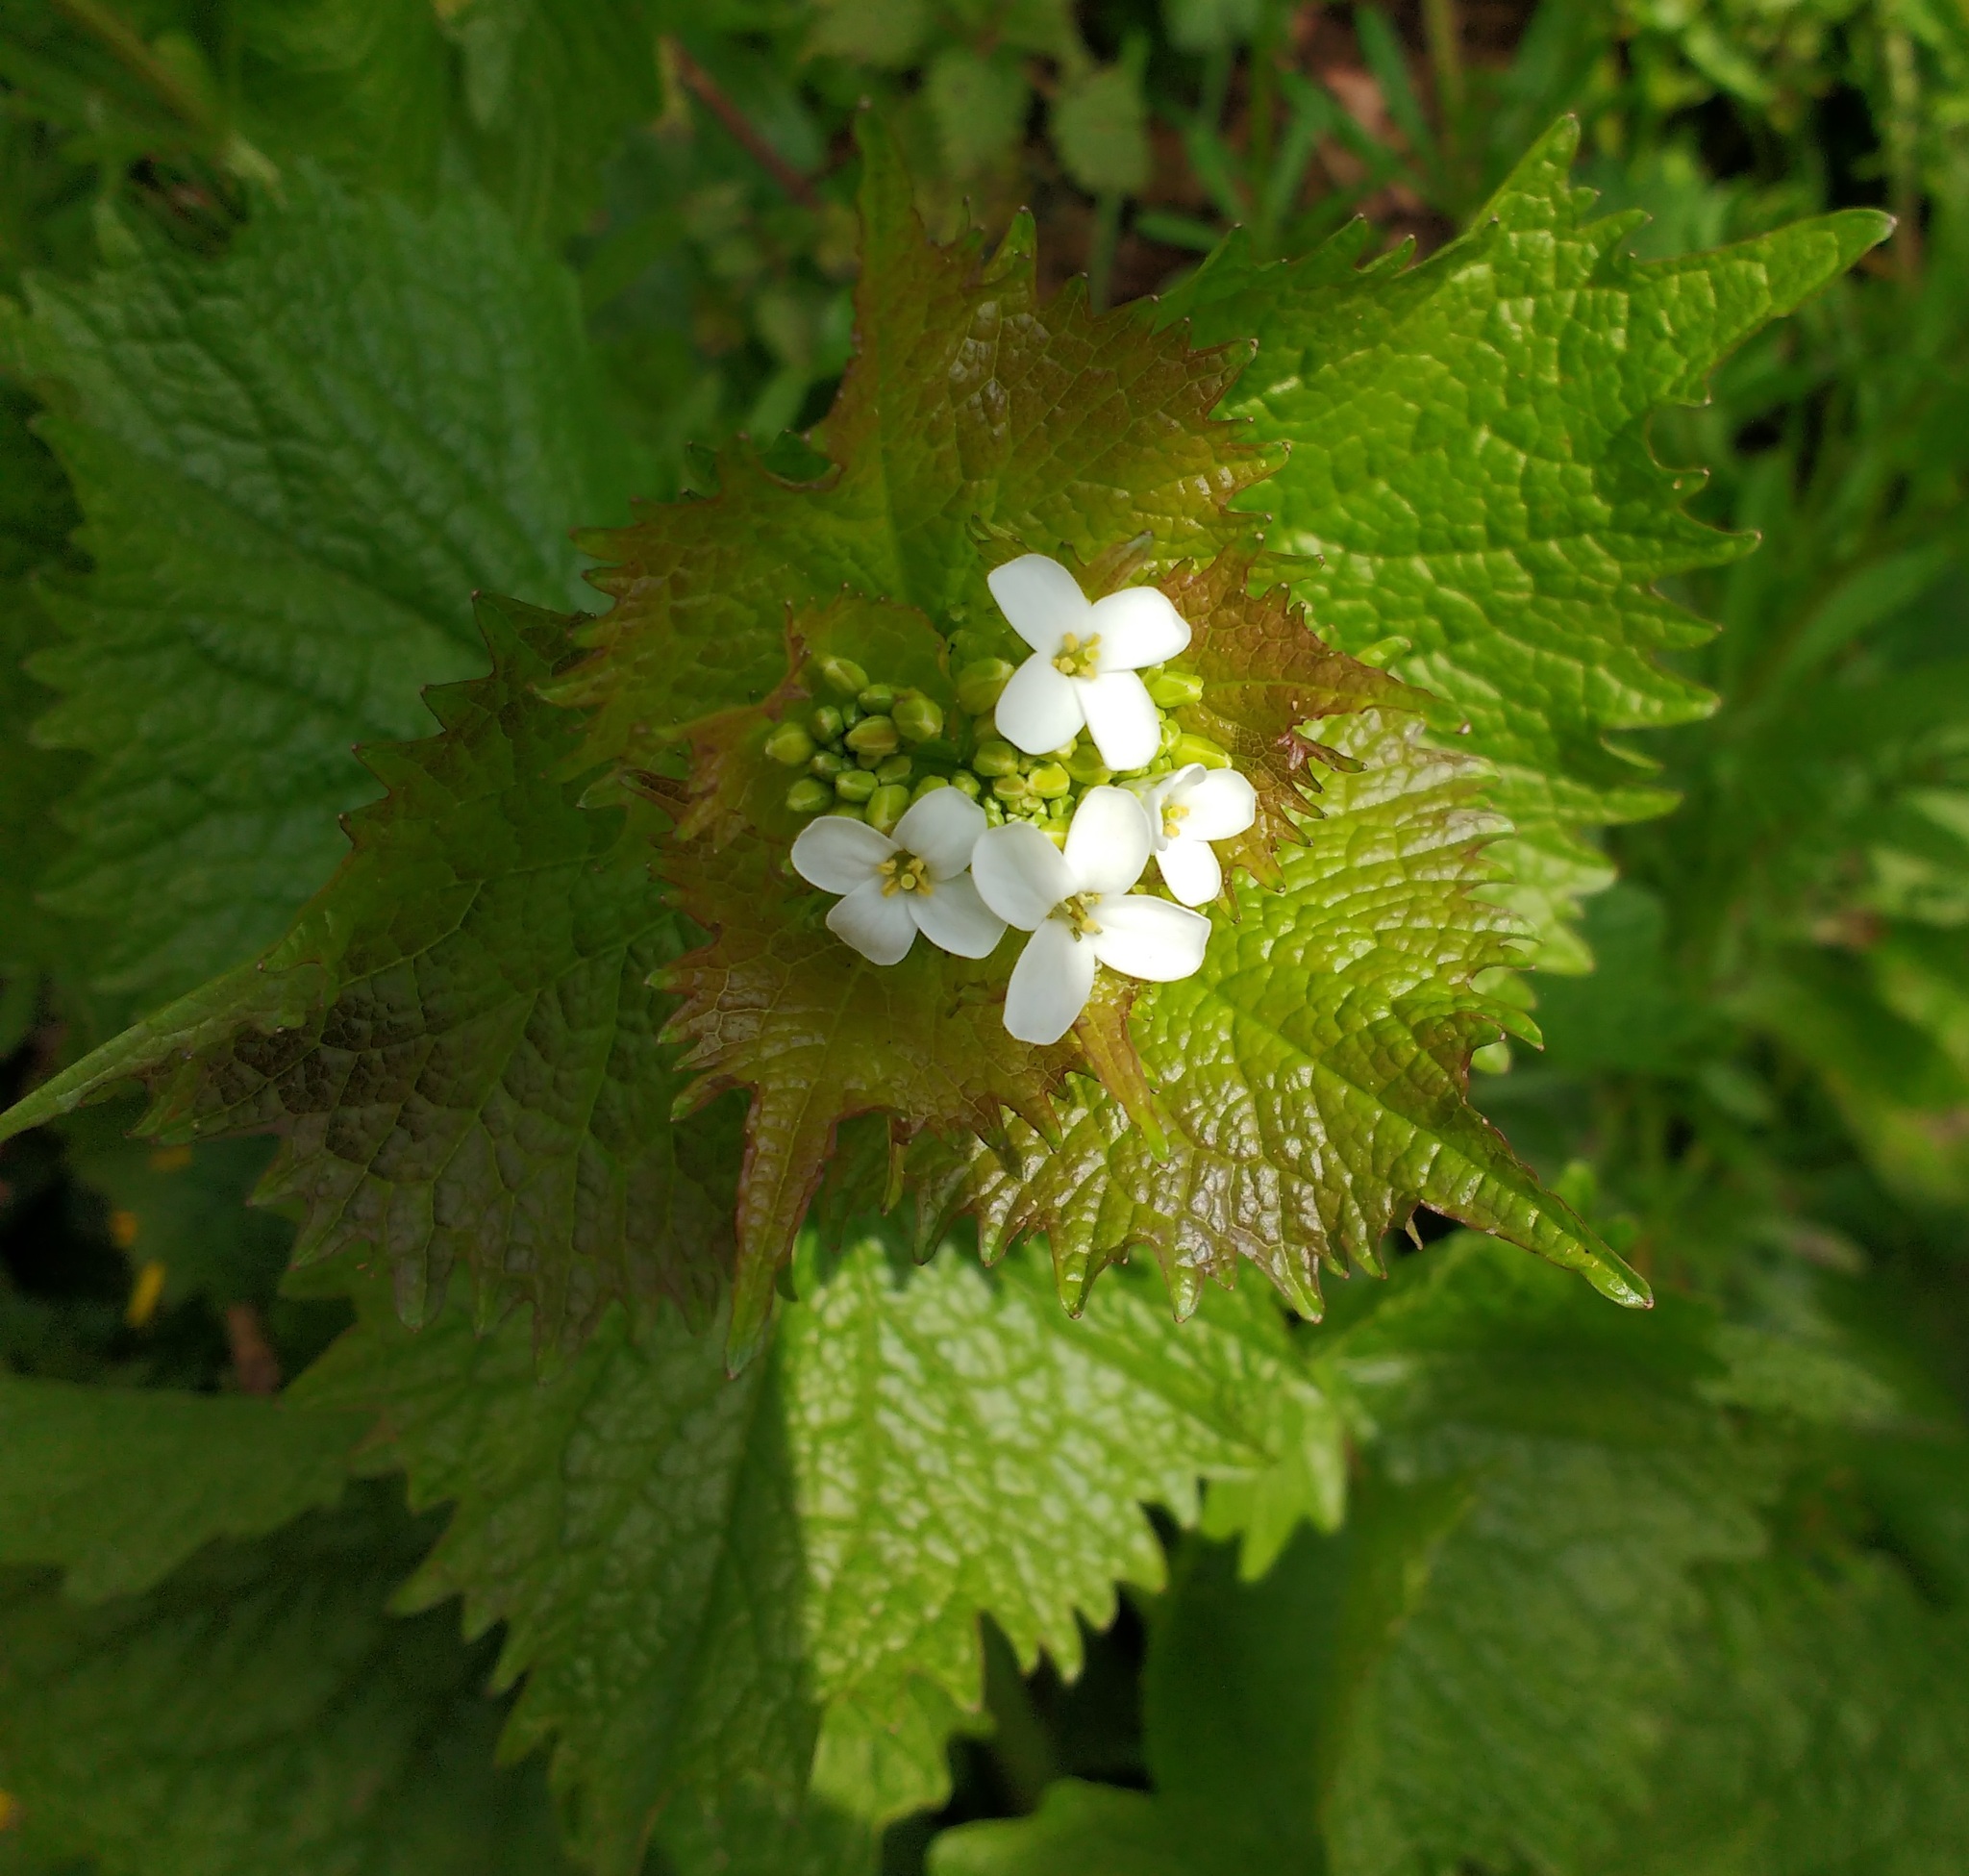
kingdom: Plantae
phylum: Tracheophyta
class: Magnoliopsida
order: Brassicales
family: Brassicaceae
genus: Alliaria
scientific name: Alliaria petiolata
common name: Garlic mustard
